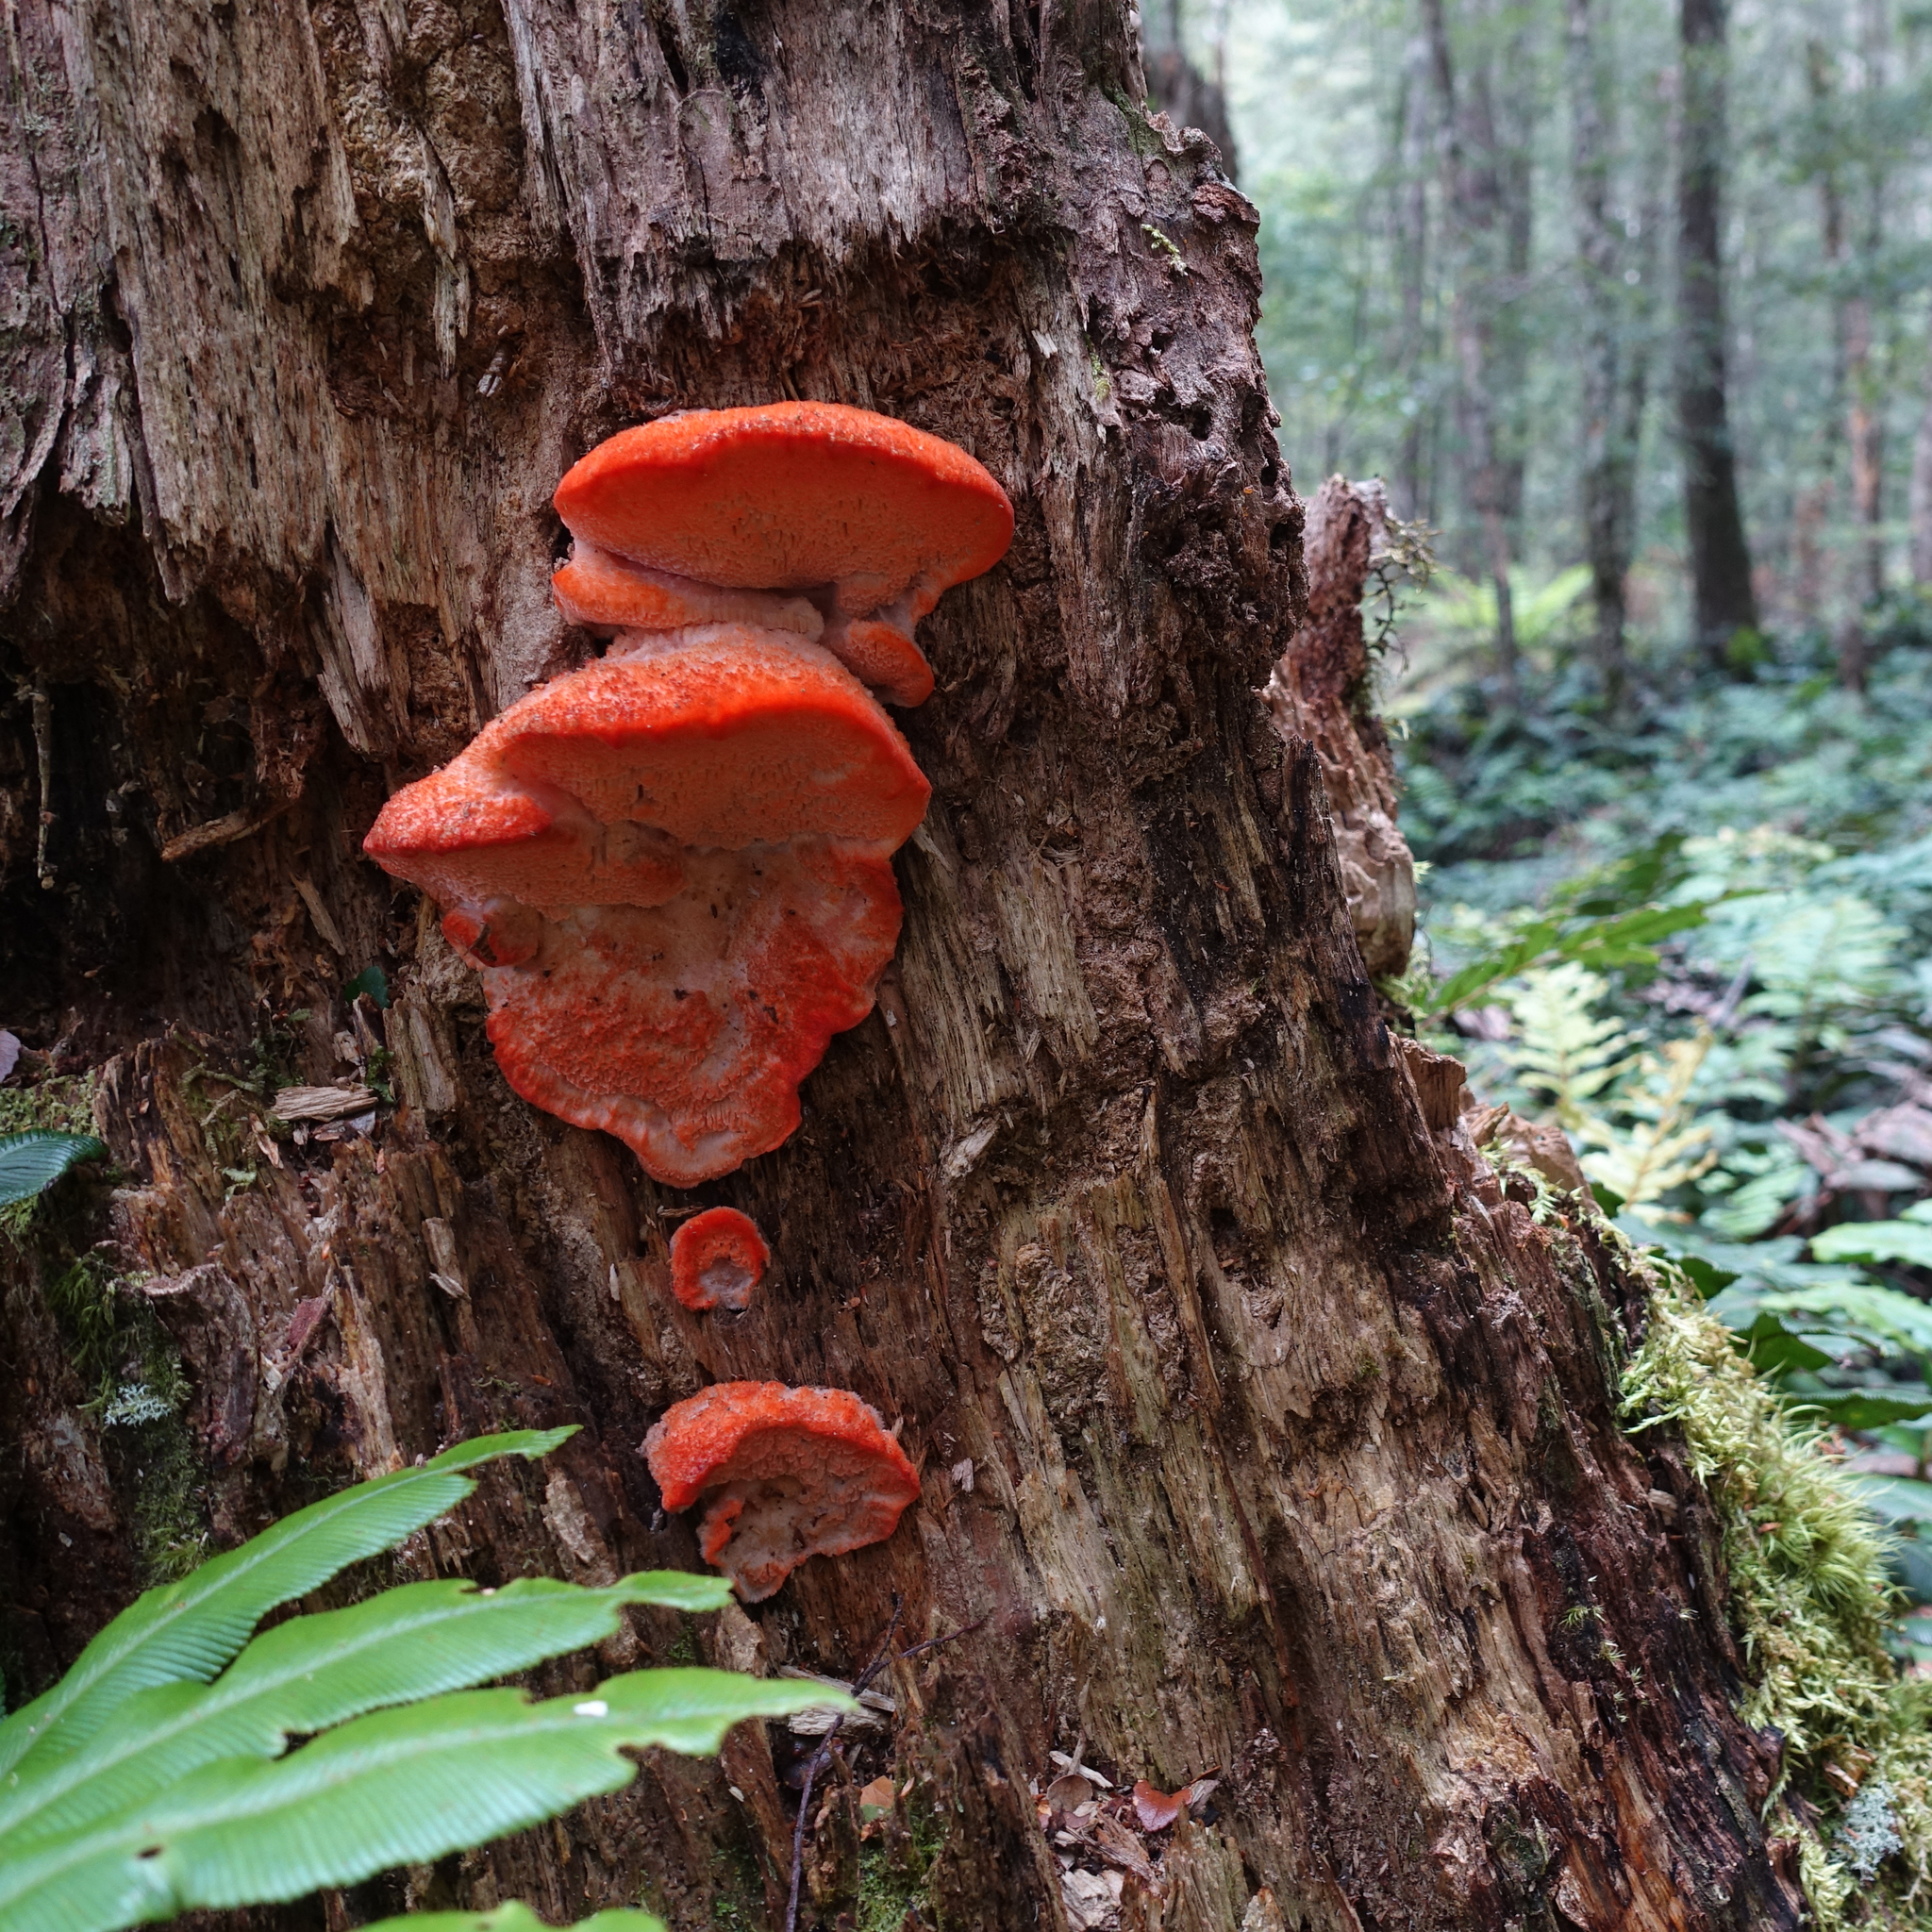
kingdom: Fungi
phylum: Basidiomycota
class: Agaricomycetes
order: Polyporales
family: Incrustoporiaceae
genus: Tyromyces
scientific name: Tyromyces pulcherrimus
